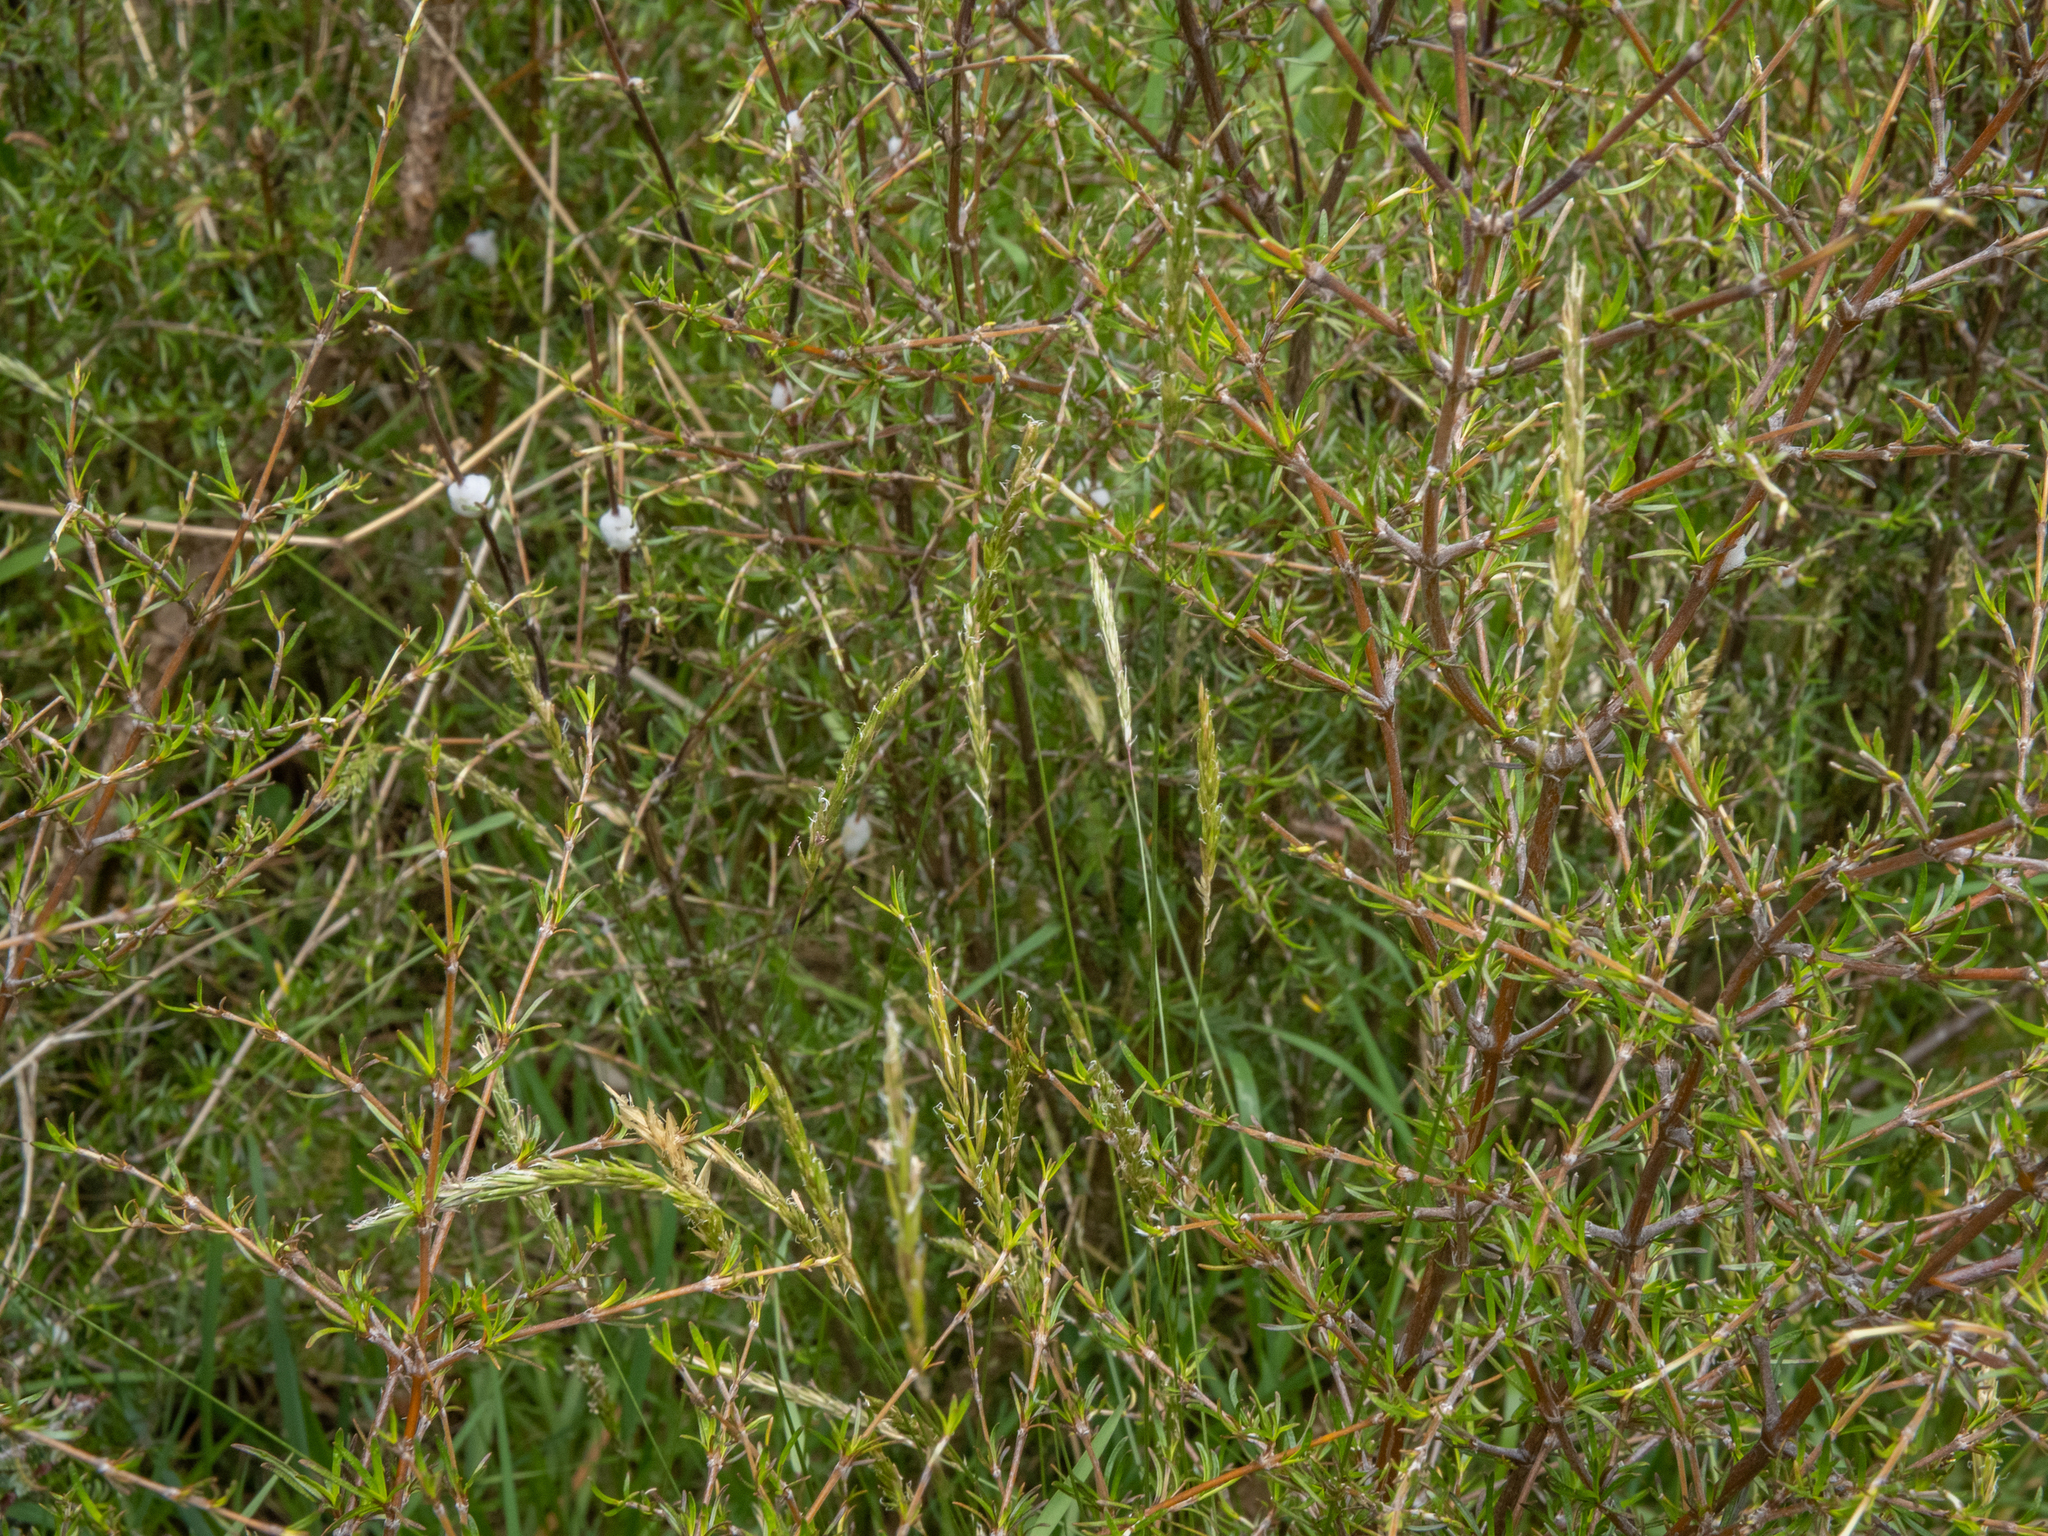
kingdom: Plantae
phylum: Tracheophyta
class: Magnoliopsida
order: Gentianales
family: Rubiaceae
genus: Coprosma
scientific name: Coprosma rugosa
